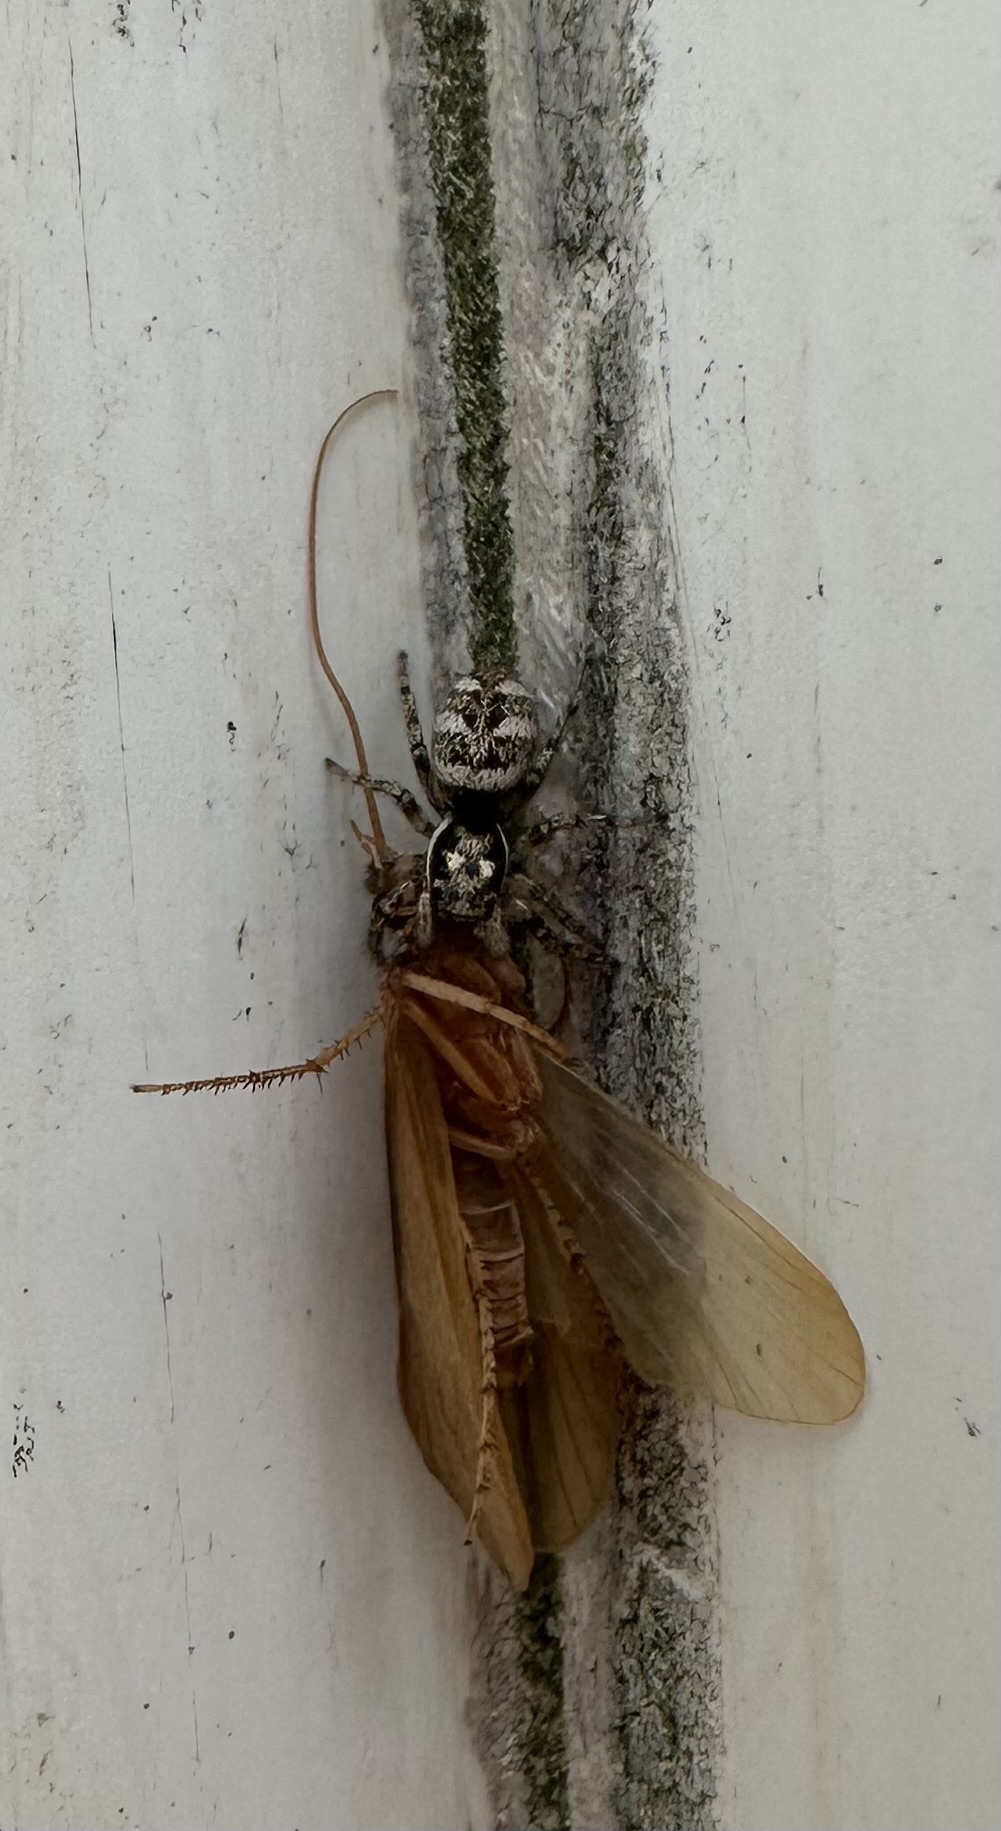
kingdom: Animalia
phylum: Arthropoda
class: Arachnida
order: Araneae
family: Salticidae
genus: Salticus
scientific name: Salticus scenicus
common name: Zebra jumper
